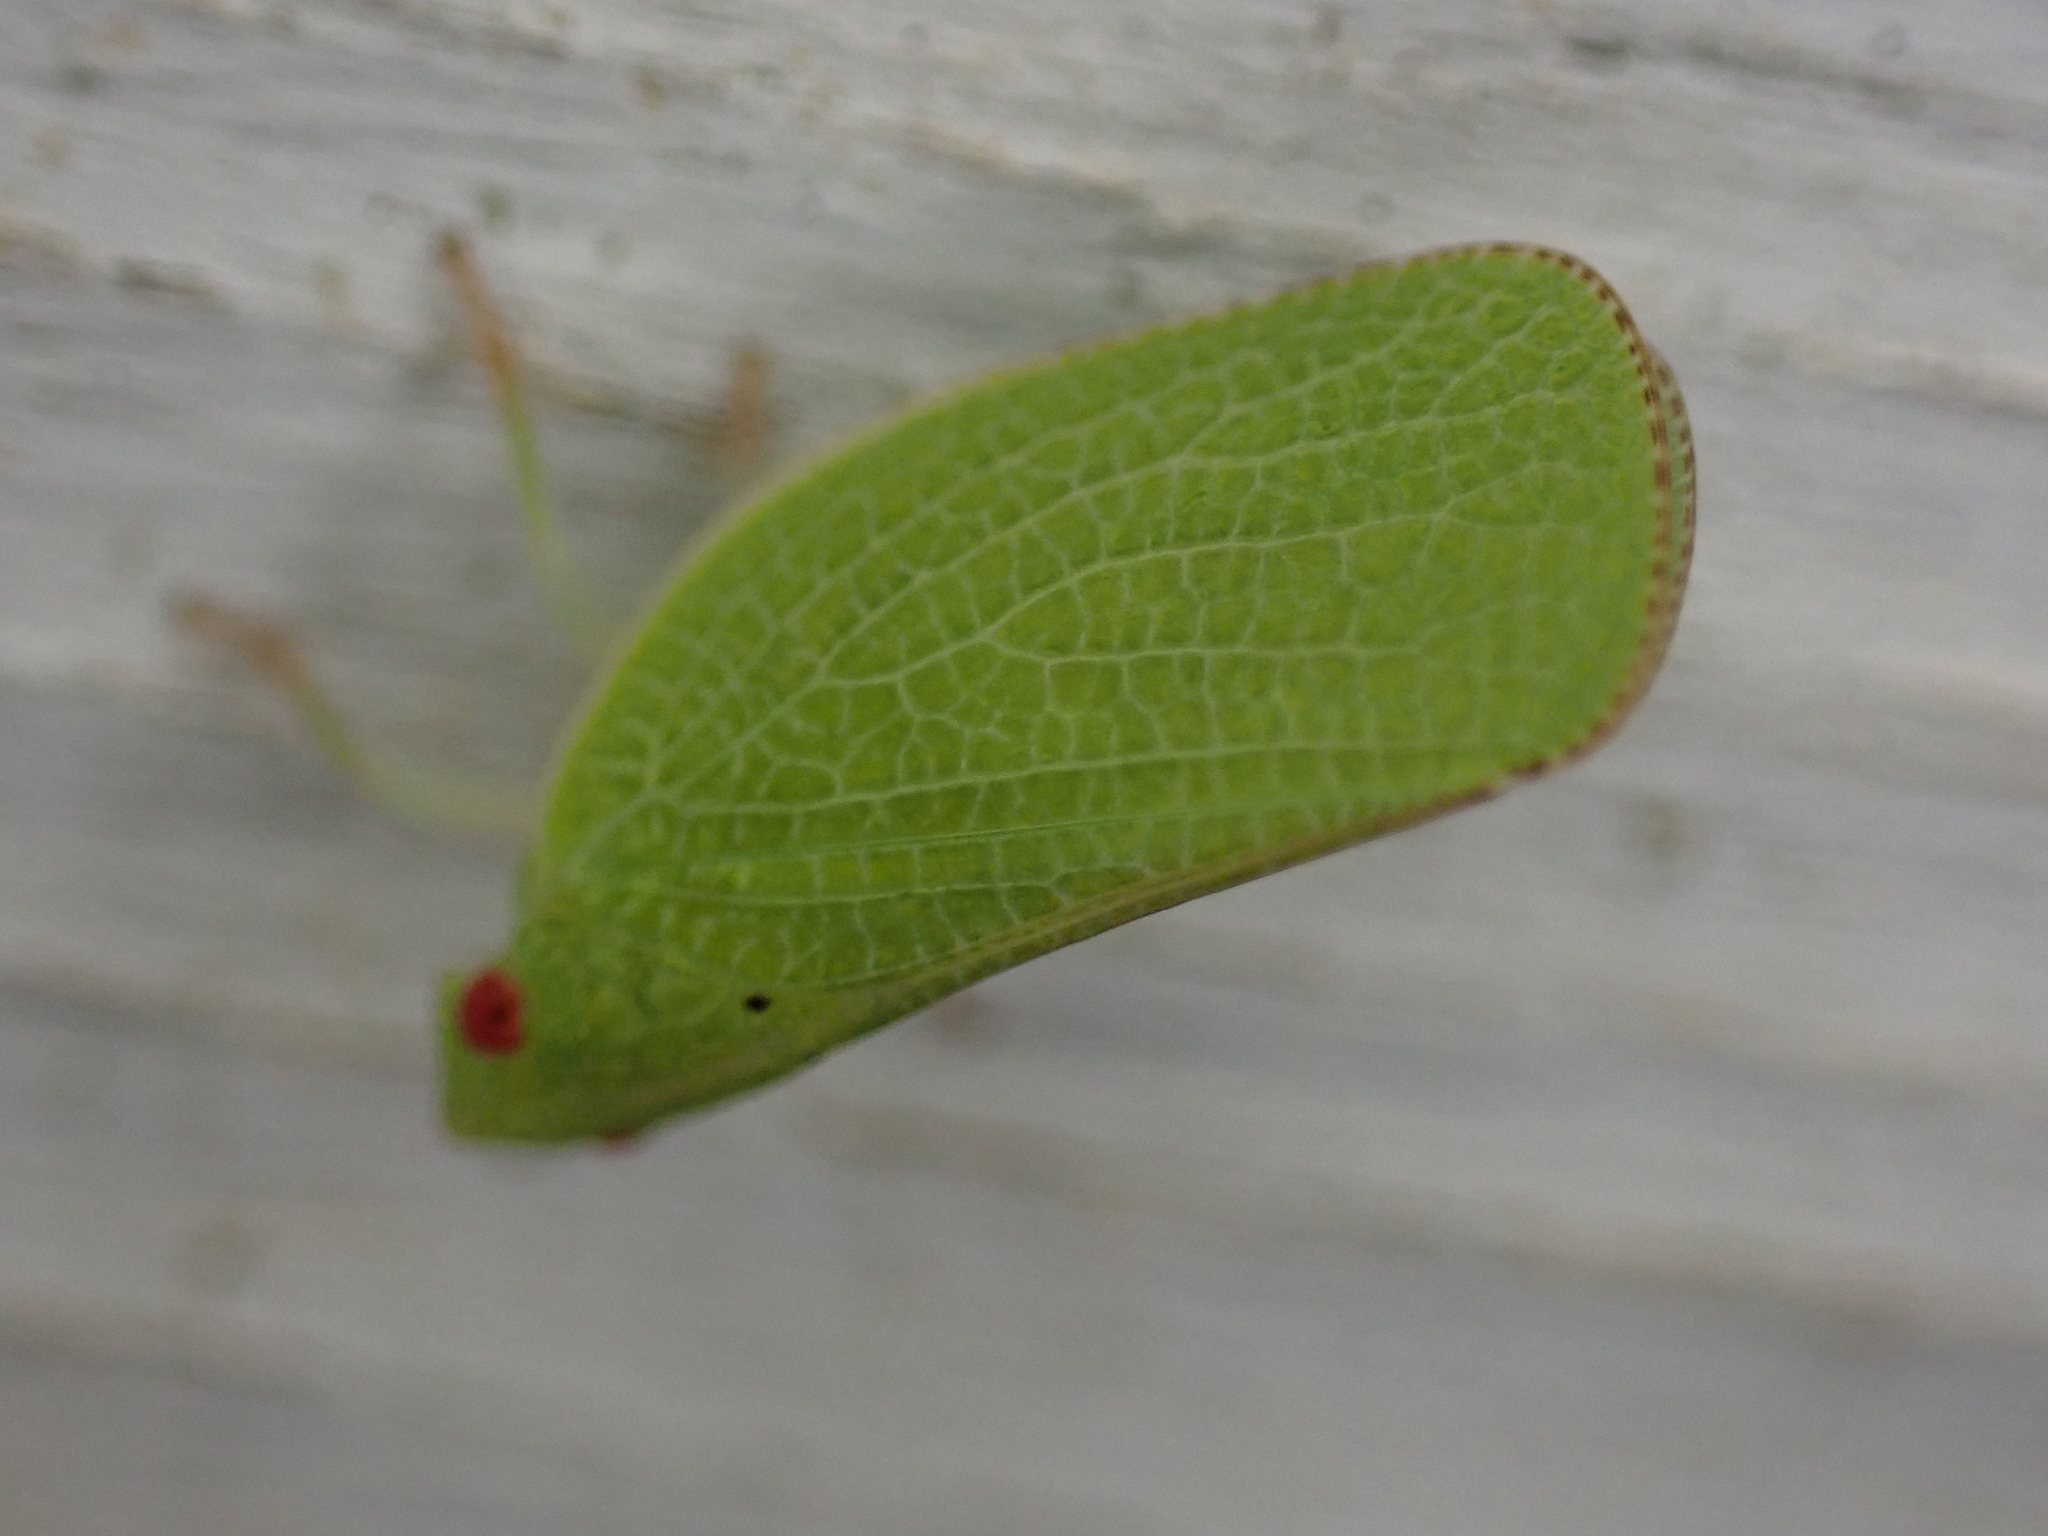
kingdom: Animalia
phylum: Arthropoda
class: Insecta
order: Hemiptera
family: Acanaloniidae
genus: Acanalonia
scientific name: Acanalonia conica
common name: Green cone-headed planthopper
